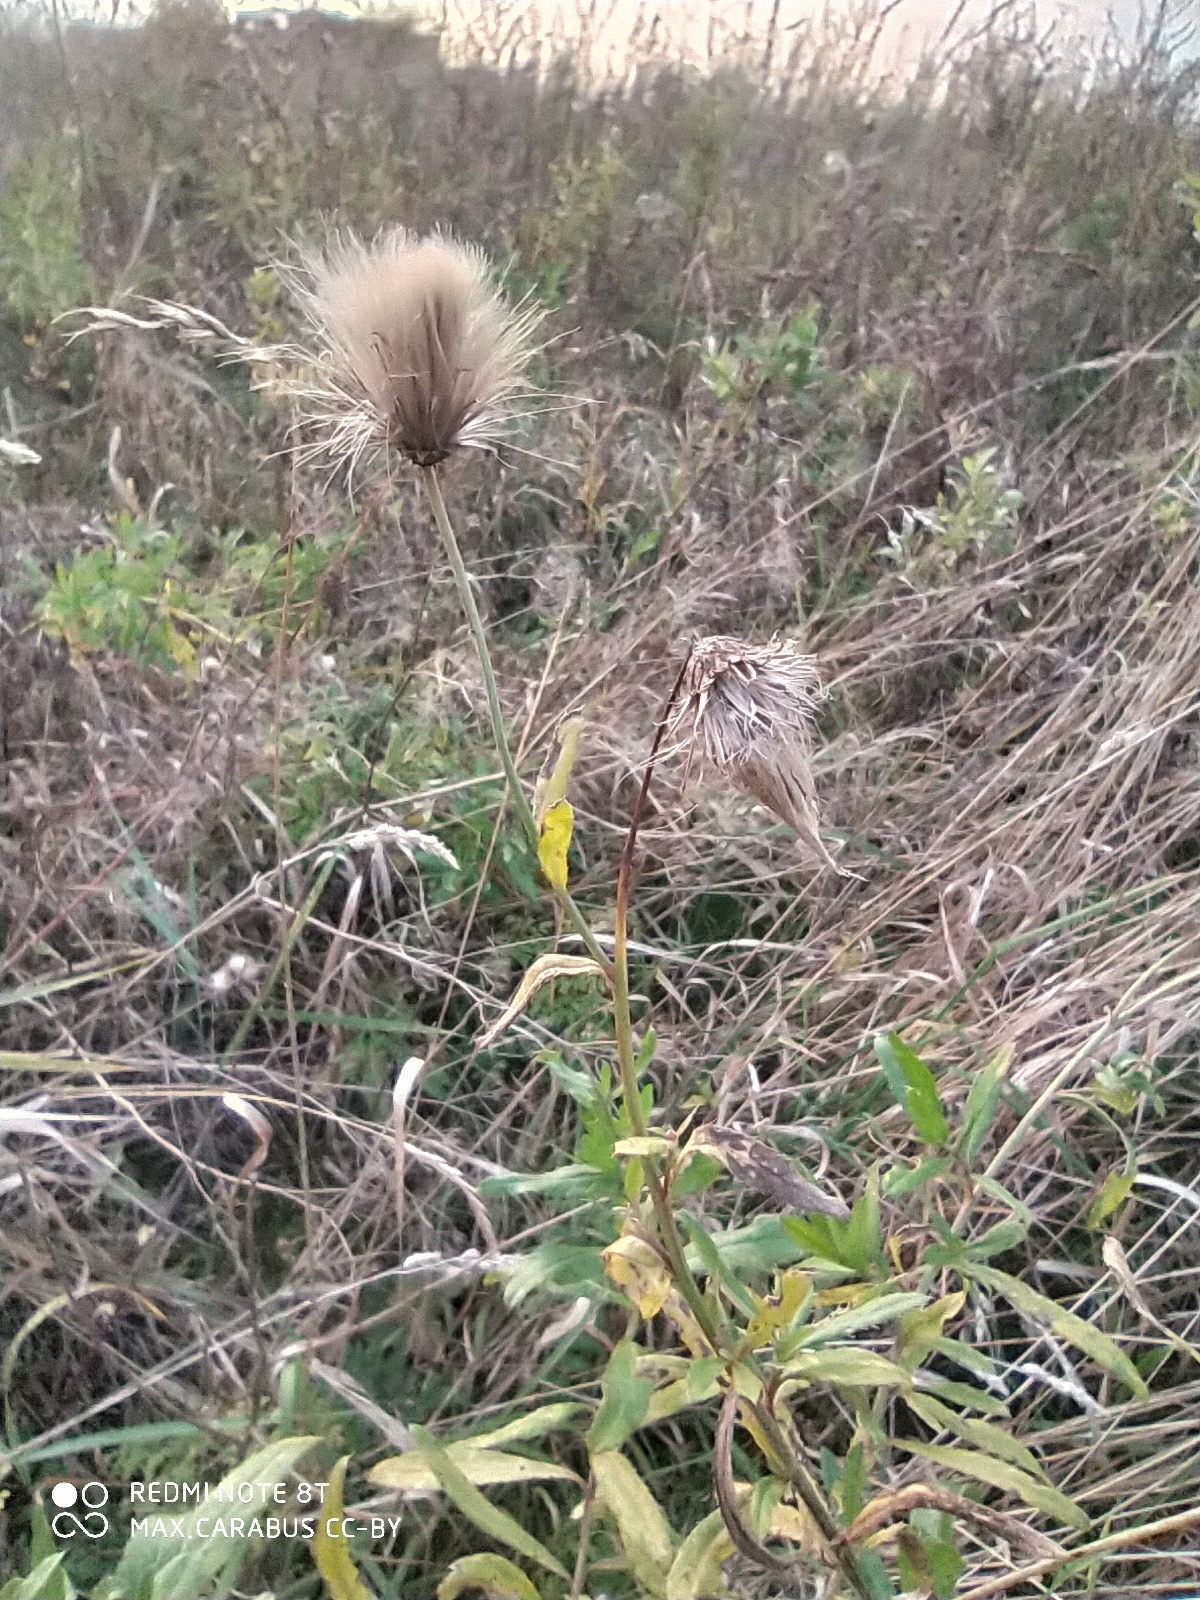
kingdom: Plantae
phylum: Tracheophyta
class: Magnoliopsida
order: Asterales
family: Asteraceae
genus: Cirsium
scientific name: Cirsium arvense
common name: Creeping thistle
